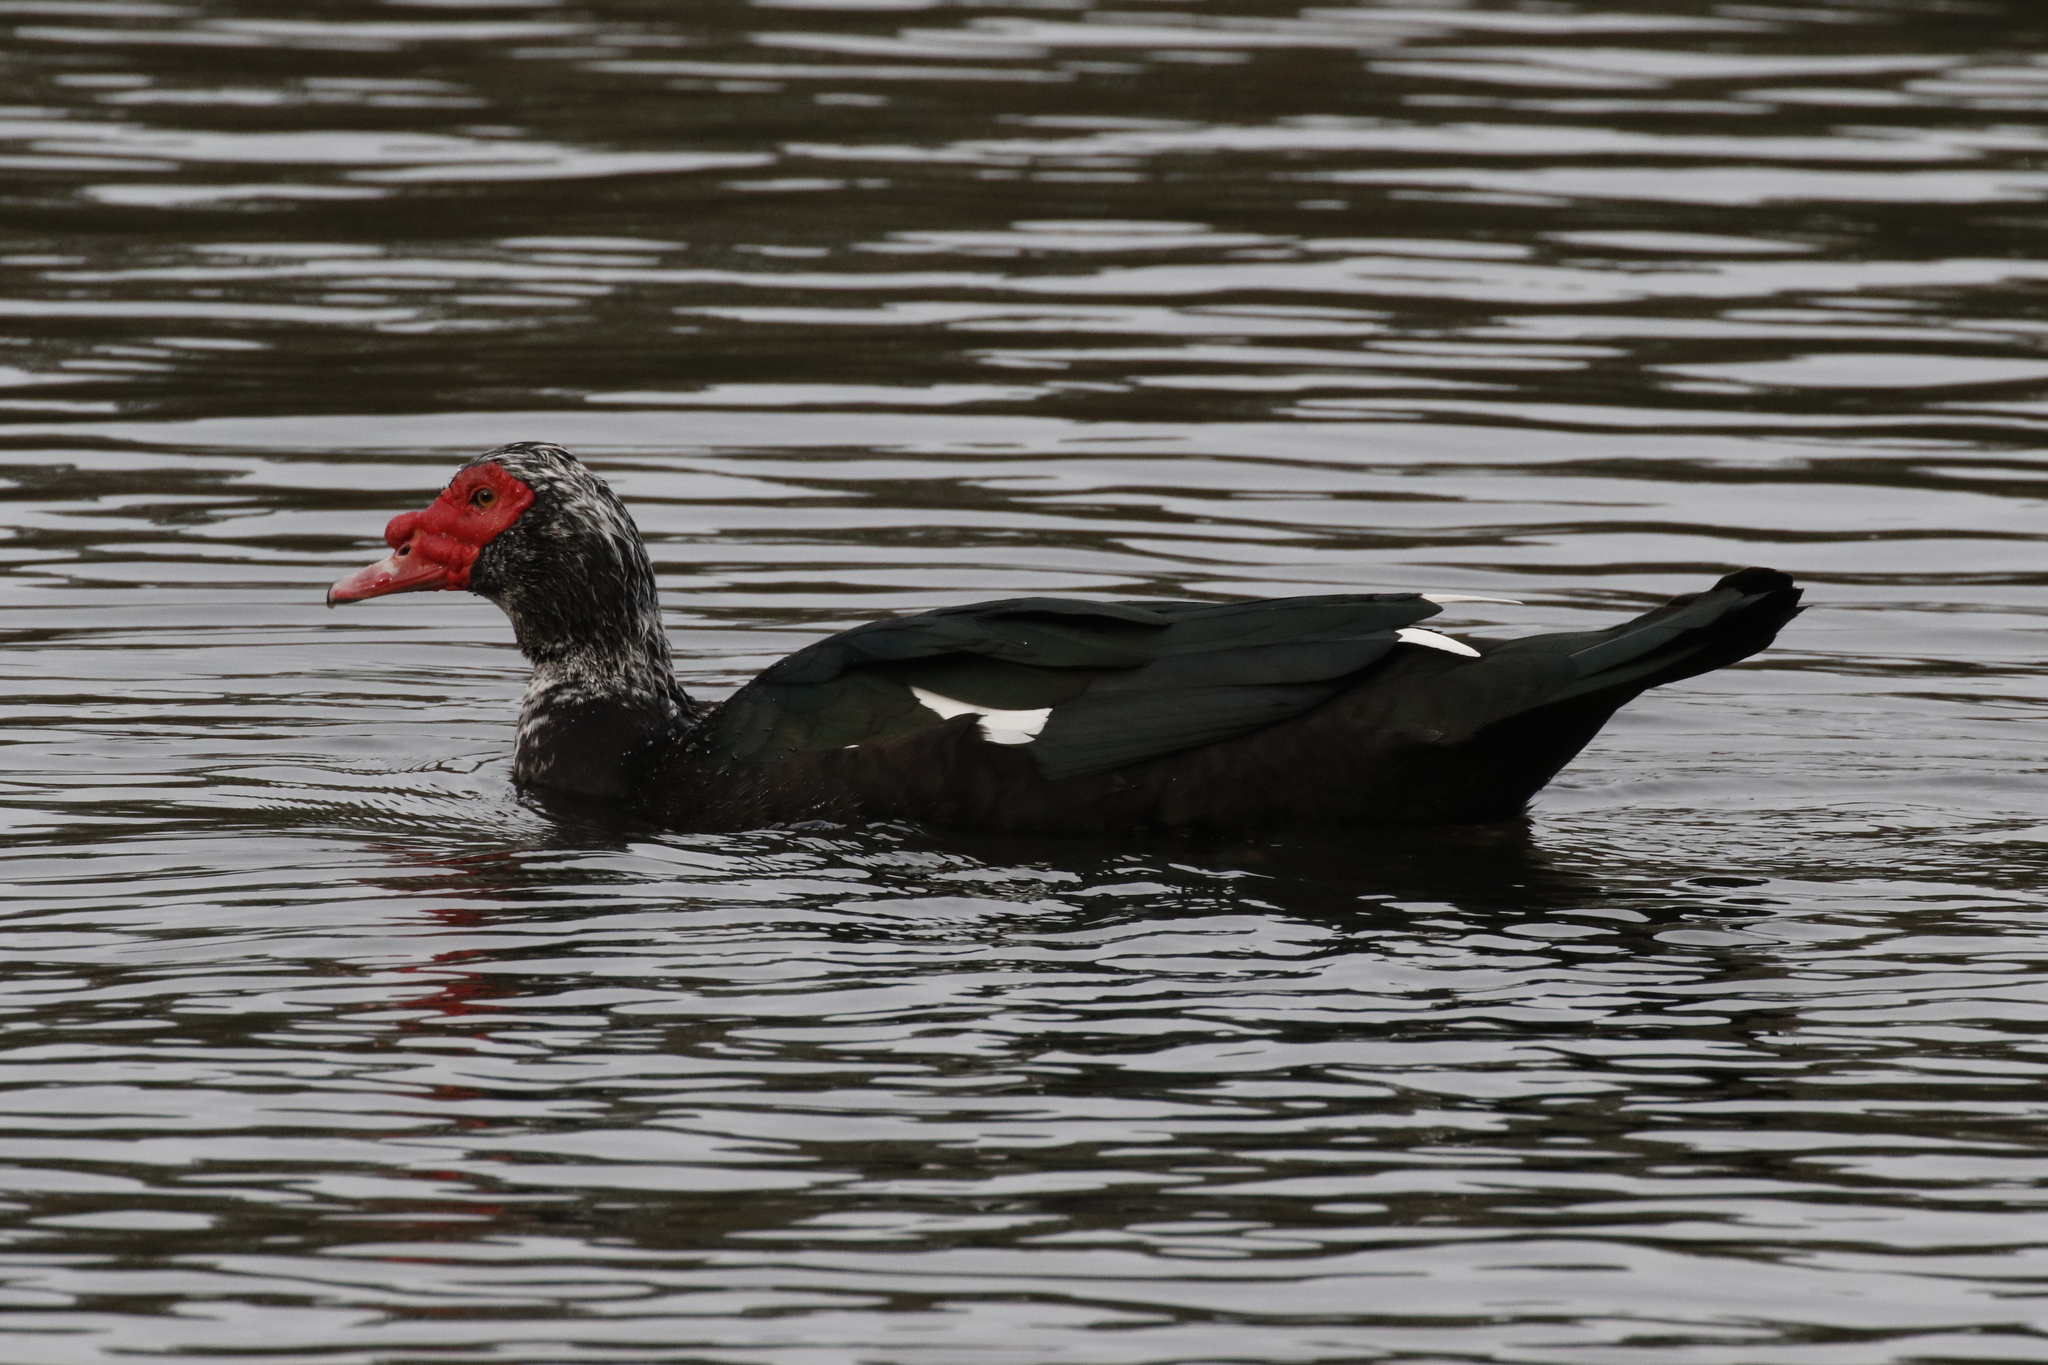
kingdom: Animalia
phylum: Chordata
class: Aves
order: Anseriformes
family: Anatidae
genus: Cairina
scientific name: Cairina moschata
